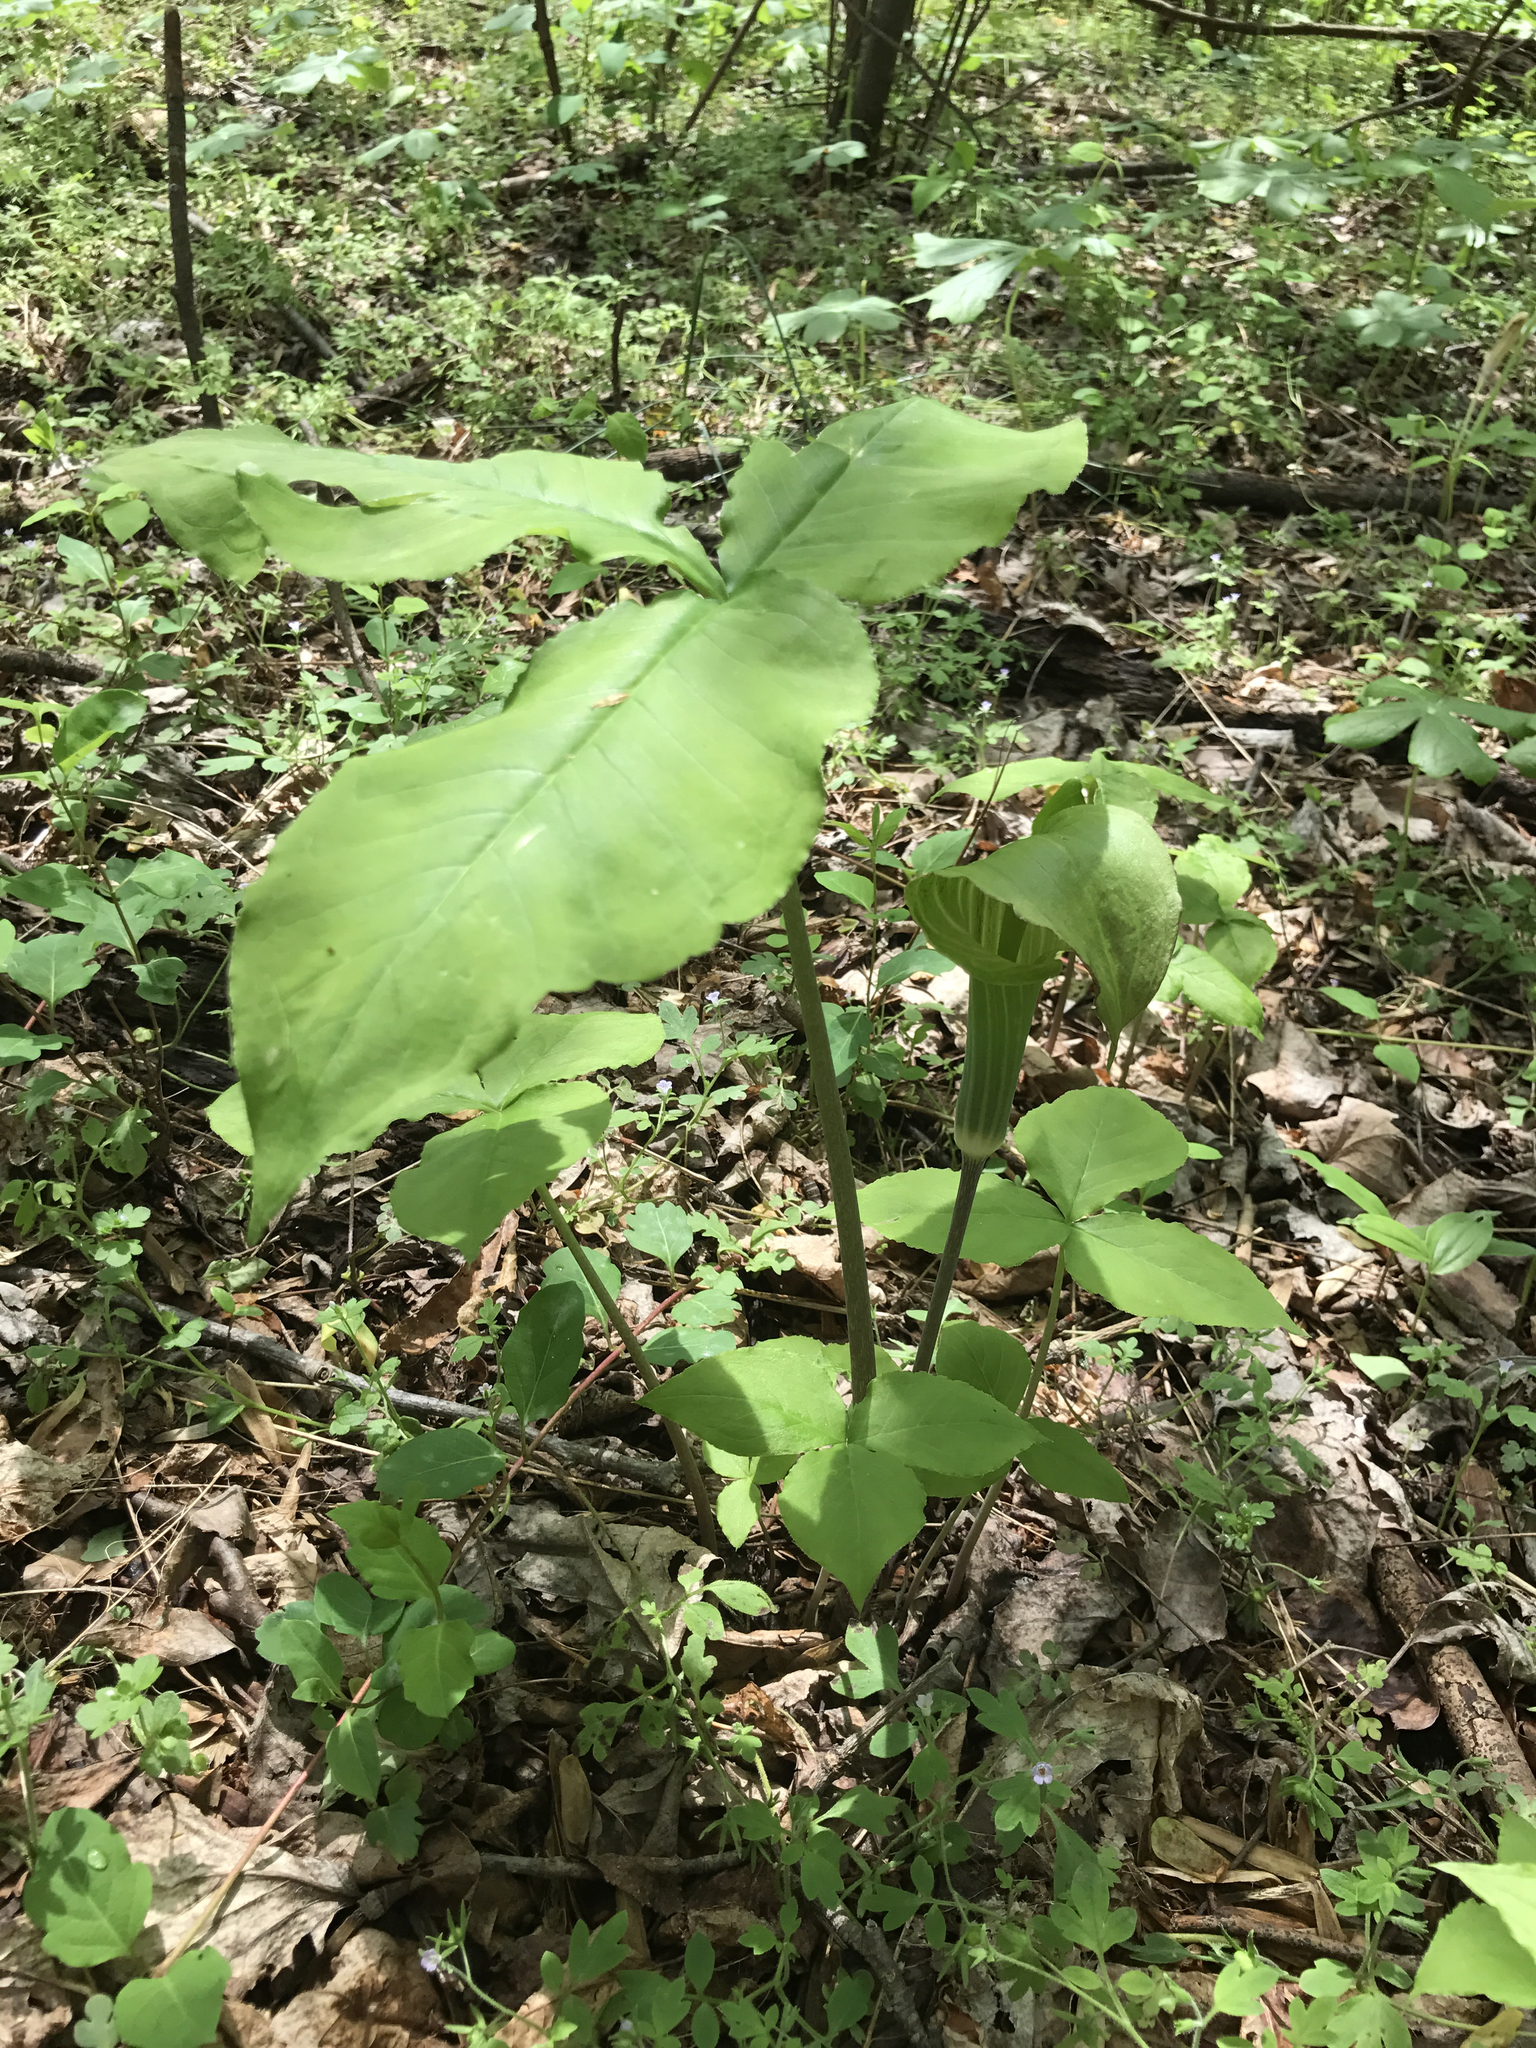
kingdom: Plantae
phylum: Tracheophyta
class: Liliopsida
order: Alismatales
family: Araceae
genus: Arisaema
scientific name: Arisaema triphyllum
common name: Jack-in-the-pulpit
